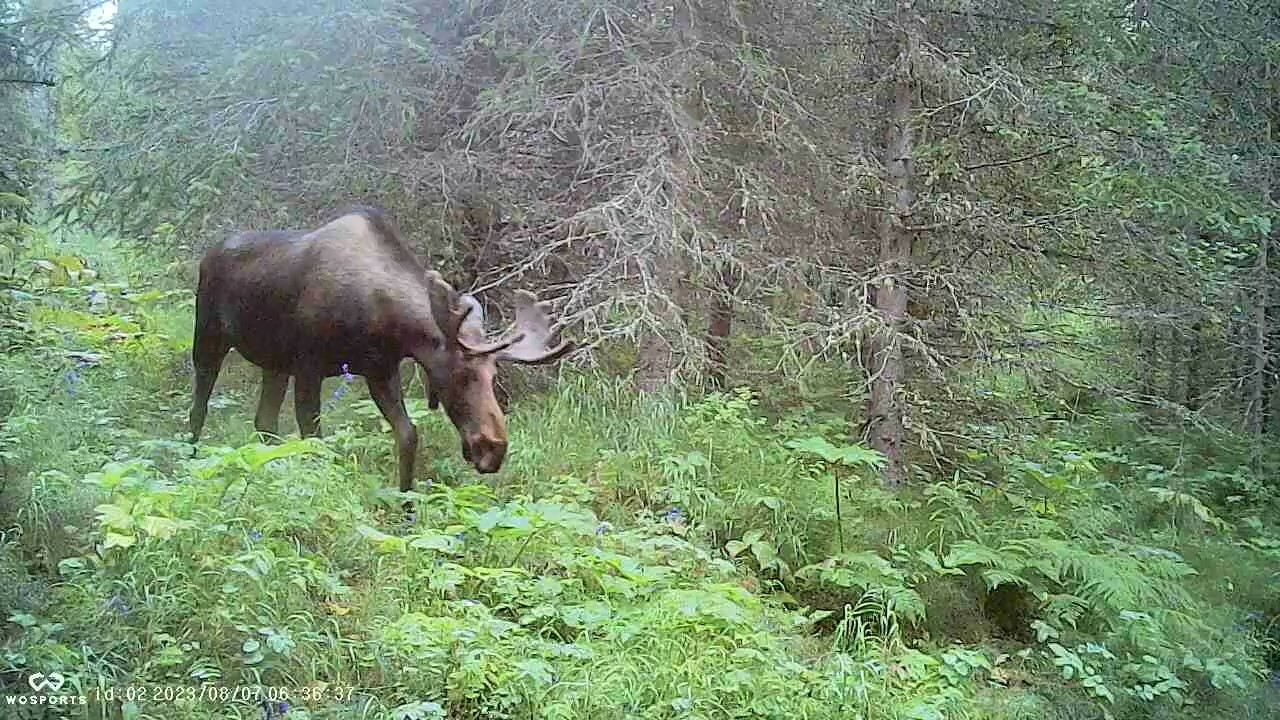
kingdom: Animalia
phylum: Chordata
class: Mammalia
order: Artiodactyla
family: Cervidae
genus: Alces
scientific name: Alces alces
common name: Moose
